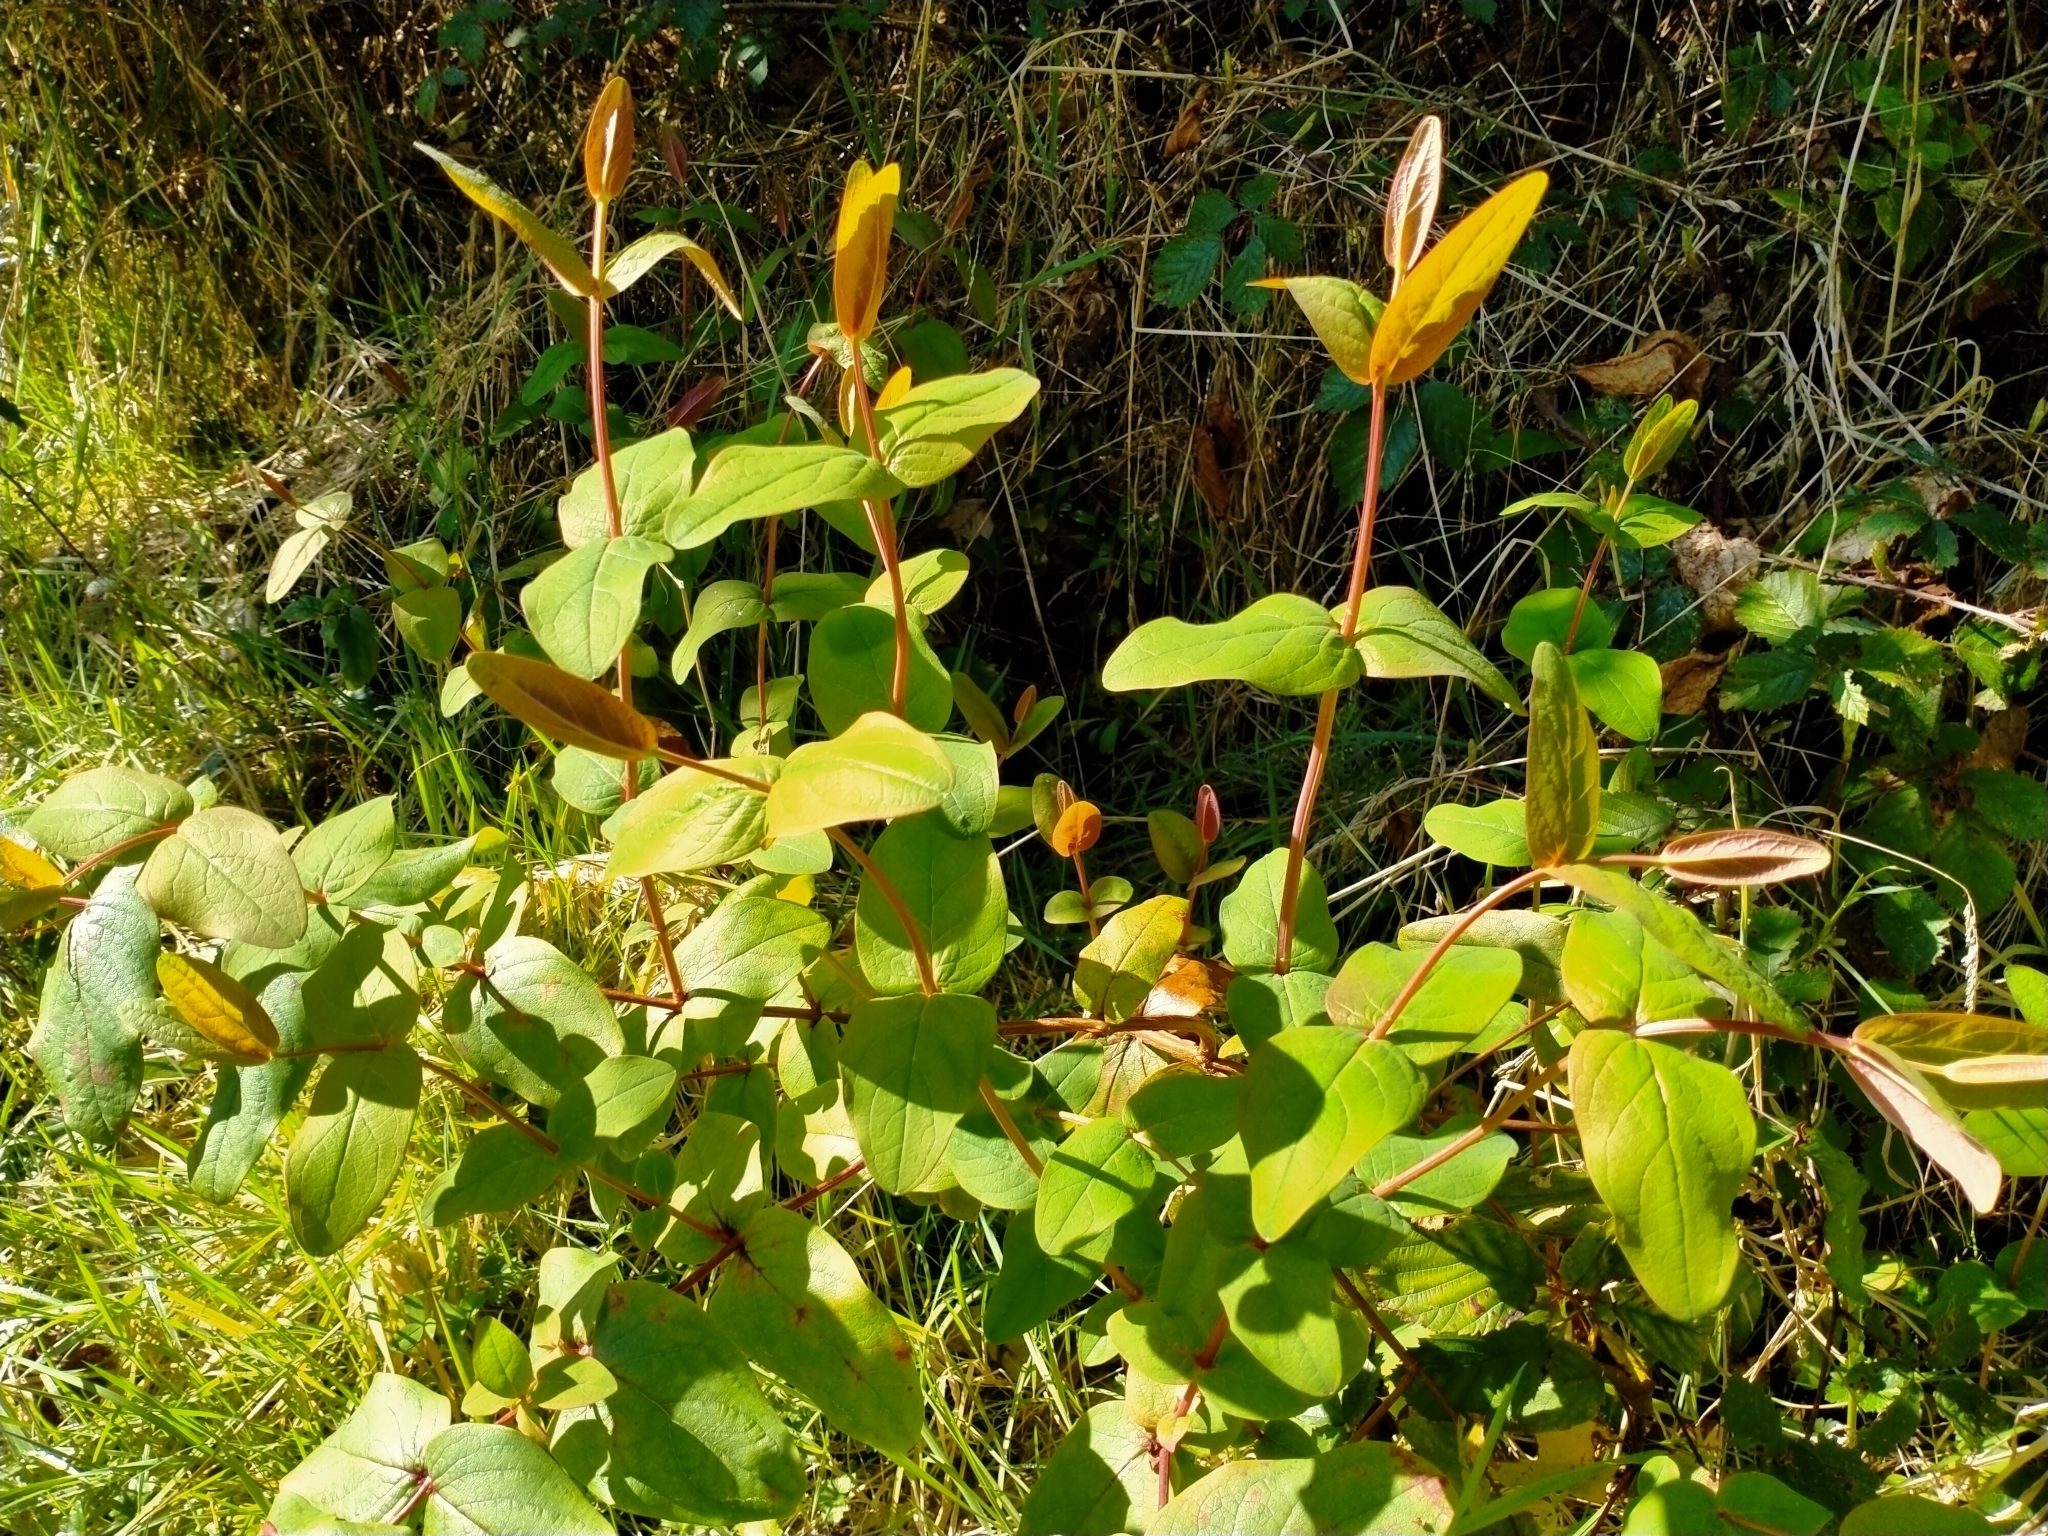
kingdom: Plantae
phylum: Tracheophyta
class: Magnoliopsida
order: Malpighiales
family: Hypericaceae
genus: Hypericum
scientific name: Hypericum androsaemum
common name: Sweet-amber
